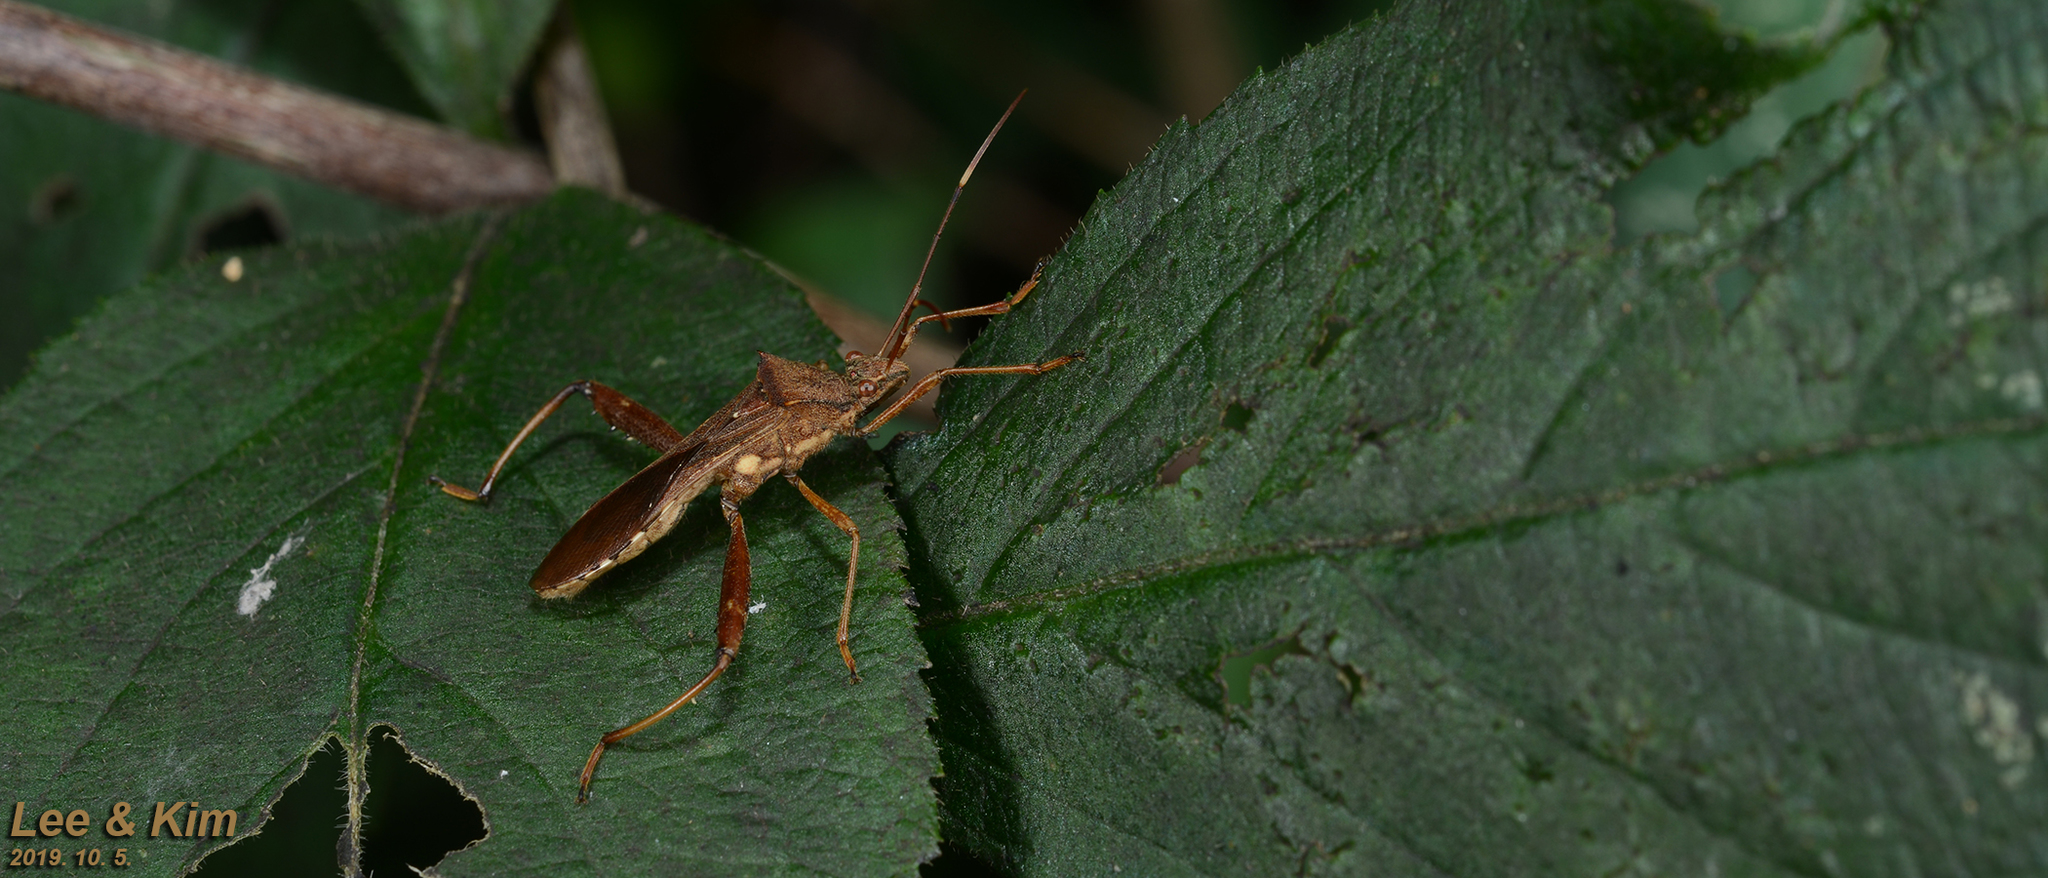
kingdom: Animalia
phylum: Arthropoda
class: Insecta
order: Hemiptera
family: Alydidae
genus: Riptortus
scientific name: Riptortus pedestris
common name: Bean bug
